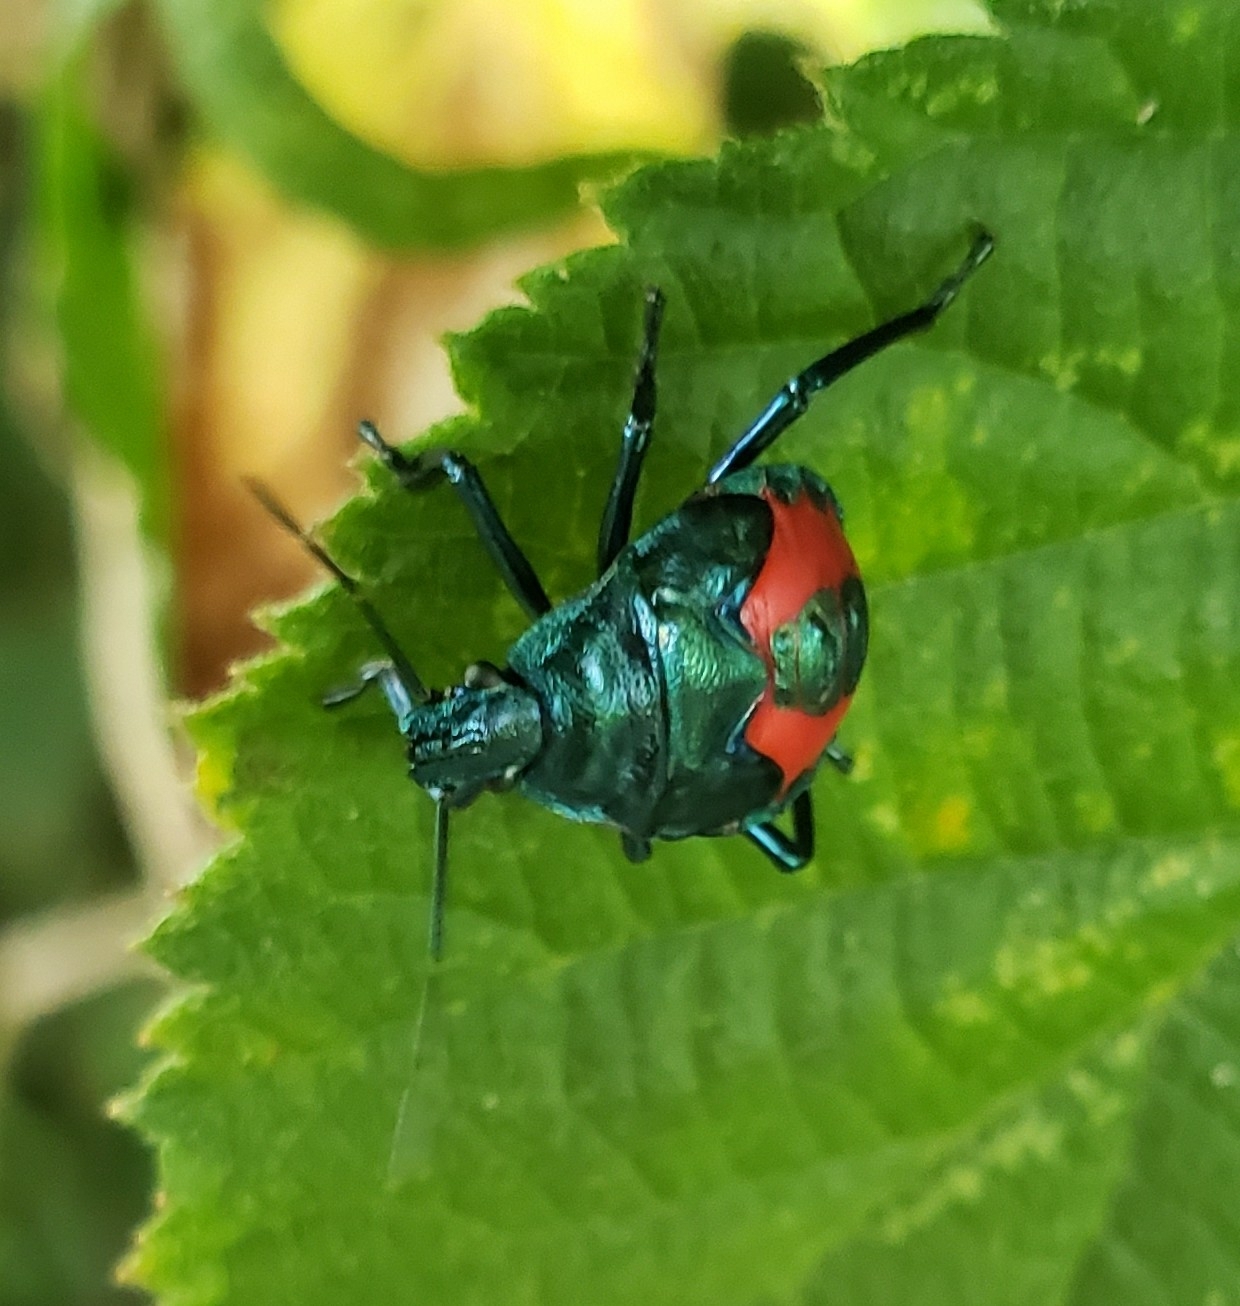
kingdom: Animalia
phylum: Arthropoda
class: Insecta
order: Hemiptera
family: Pentatomidae
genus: Euthyrhynchus
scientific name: Euthyrhynchus floridanus
